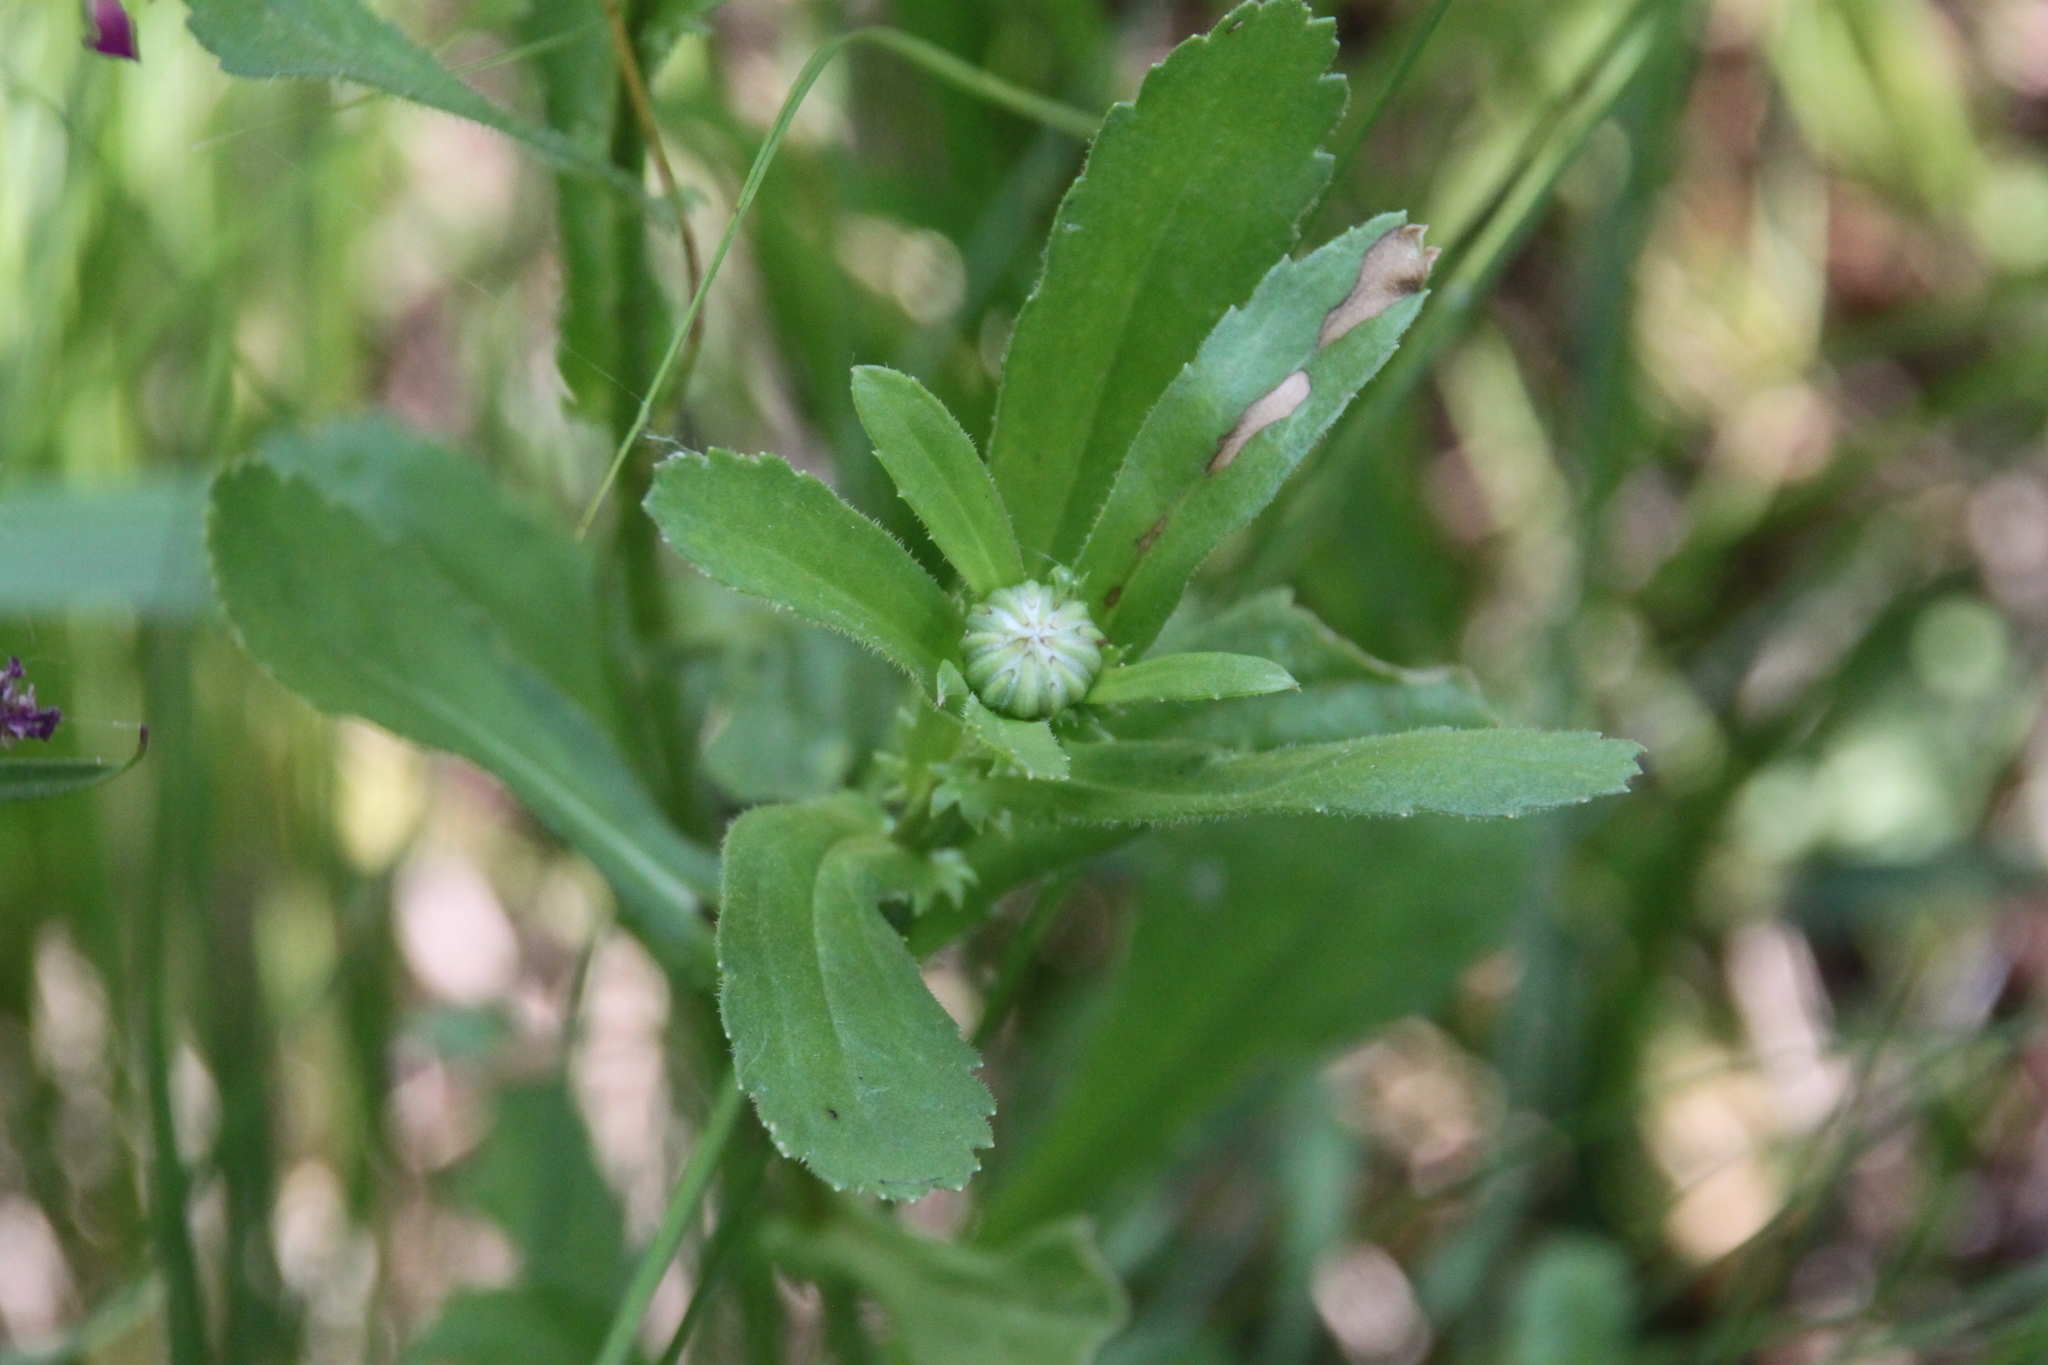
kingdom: Plantae
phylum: Tracheophyta
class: Magnoliopsida
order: Asterales
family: Asteraceae
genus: Leucanthemum
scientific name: Leucanthemum vulgare
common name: Oxeye daisy
